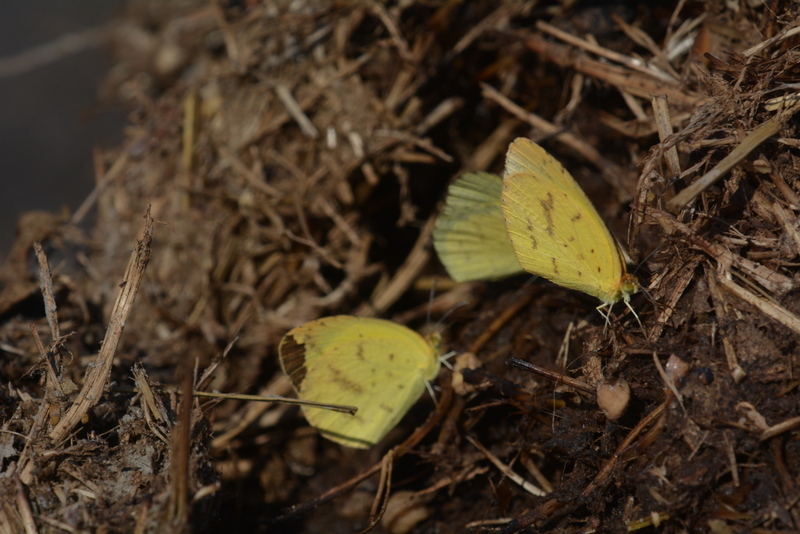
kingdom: Animalia
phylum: Arthropoda
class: Insecta
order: Lepidoptera
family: Pieridae
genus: Eurema
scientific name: Eurema brigitta
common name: Small grass yellow
